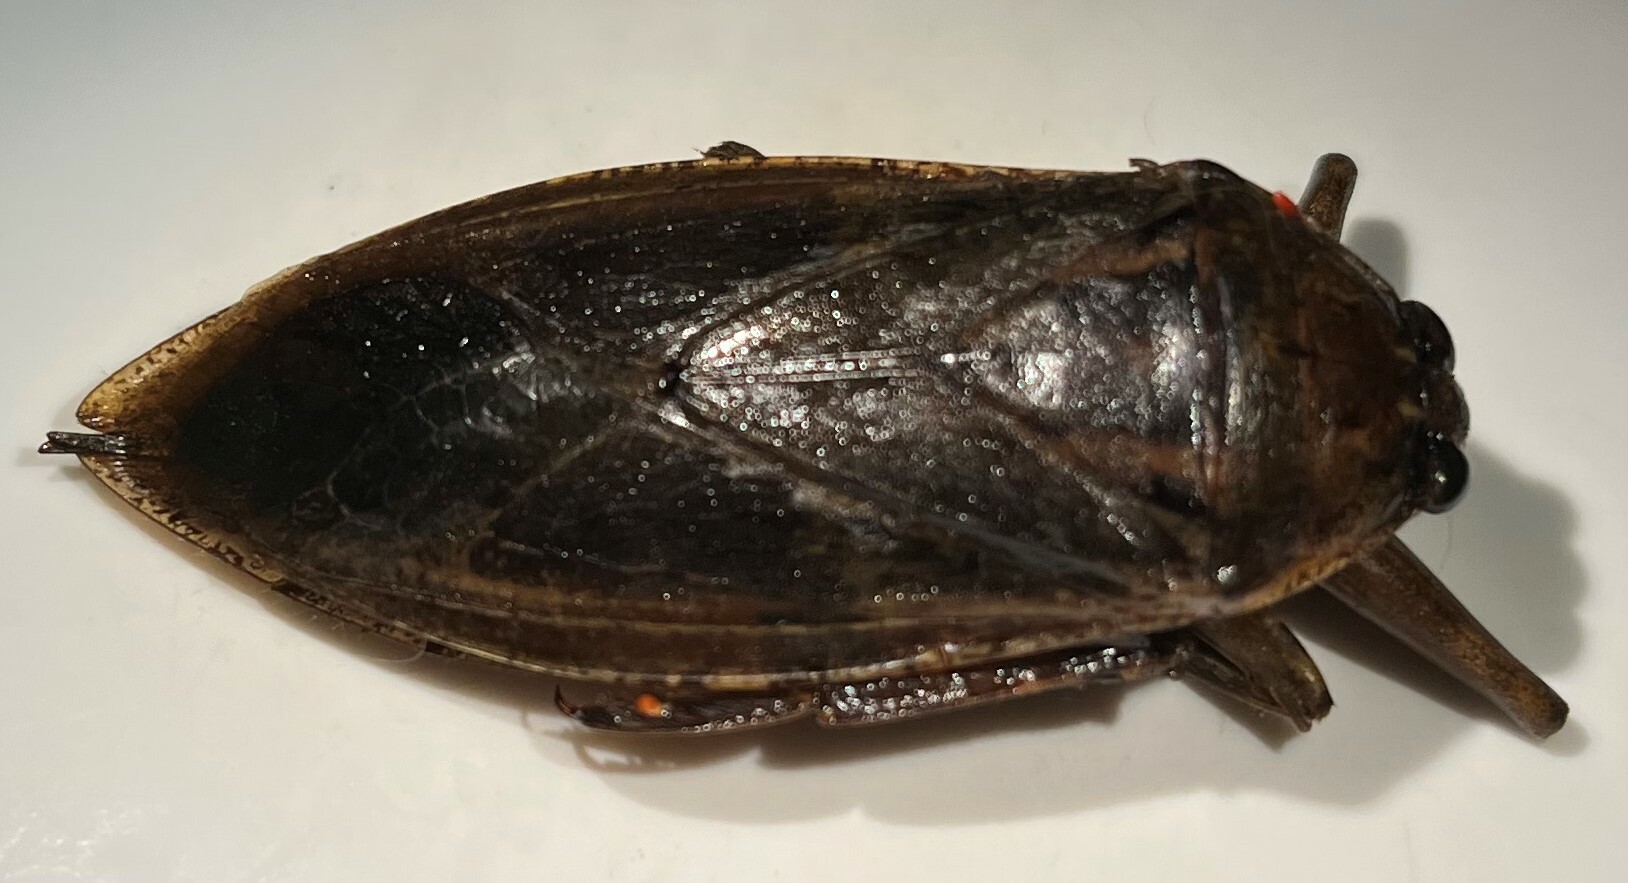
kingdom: Animalia
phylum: Arthropoda
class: Insecta
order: Hemiptera
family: Belostomatidae
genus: Lethocerus
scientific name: Lethocerus americanus
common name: Giant water bug
